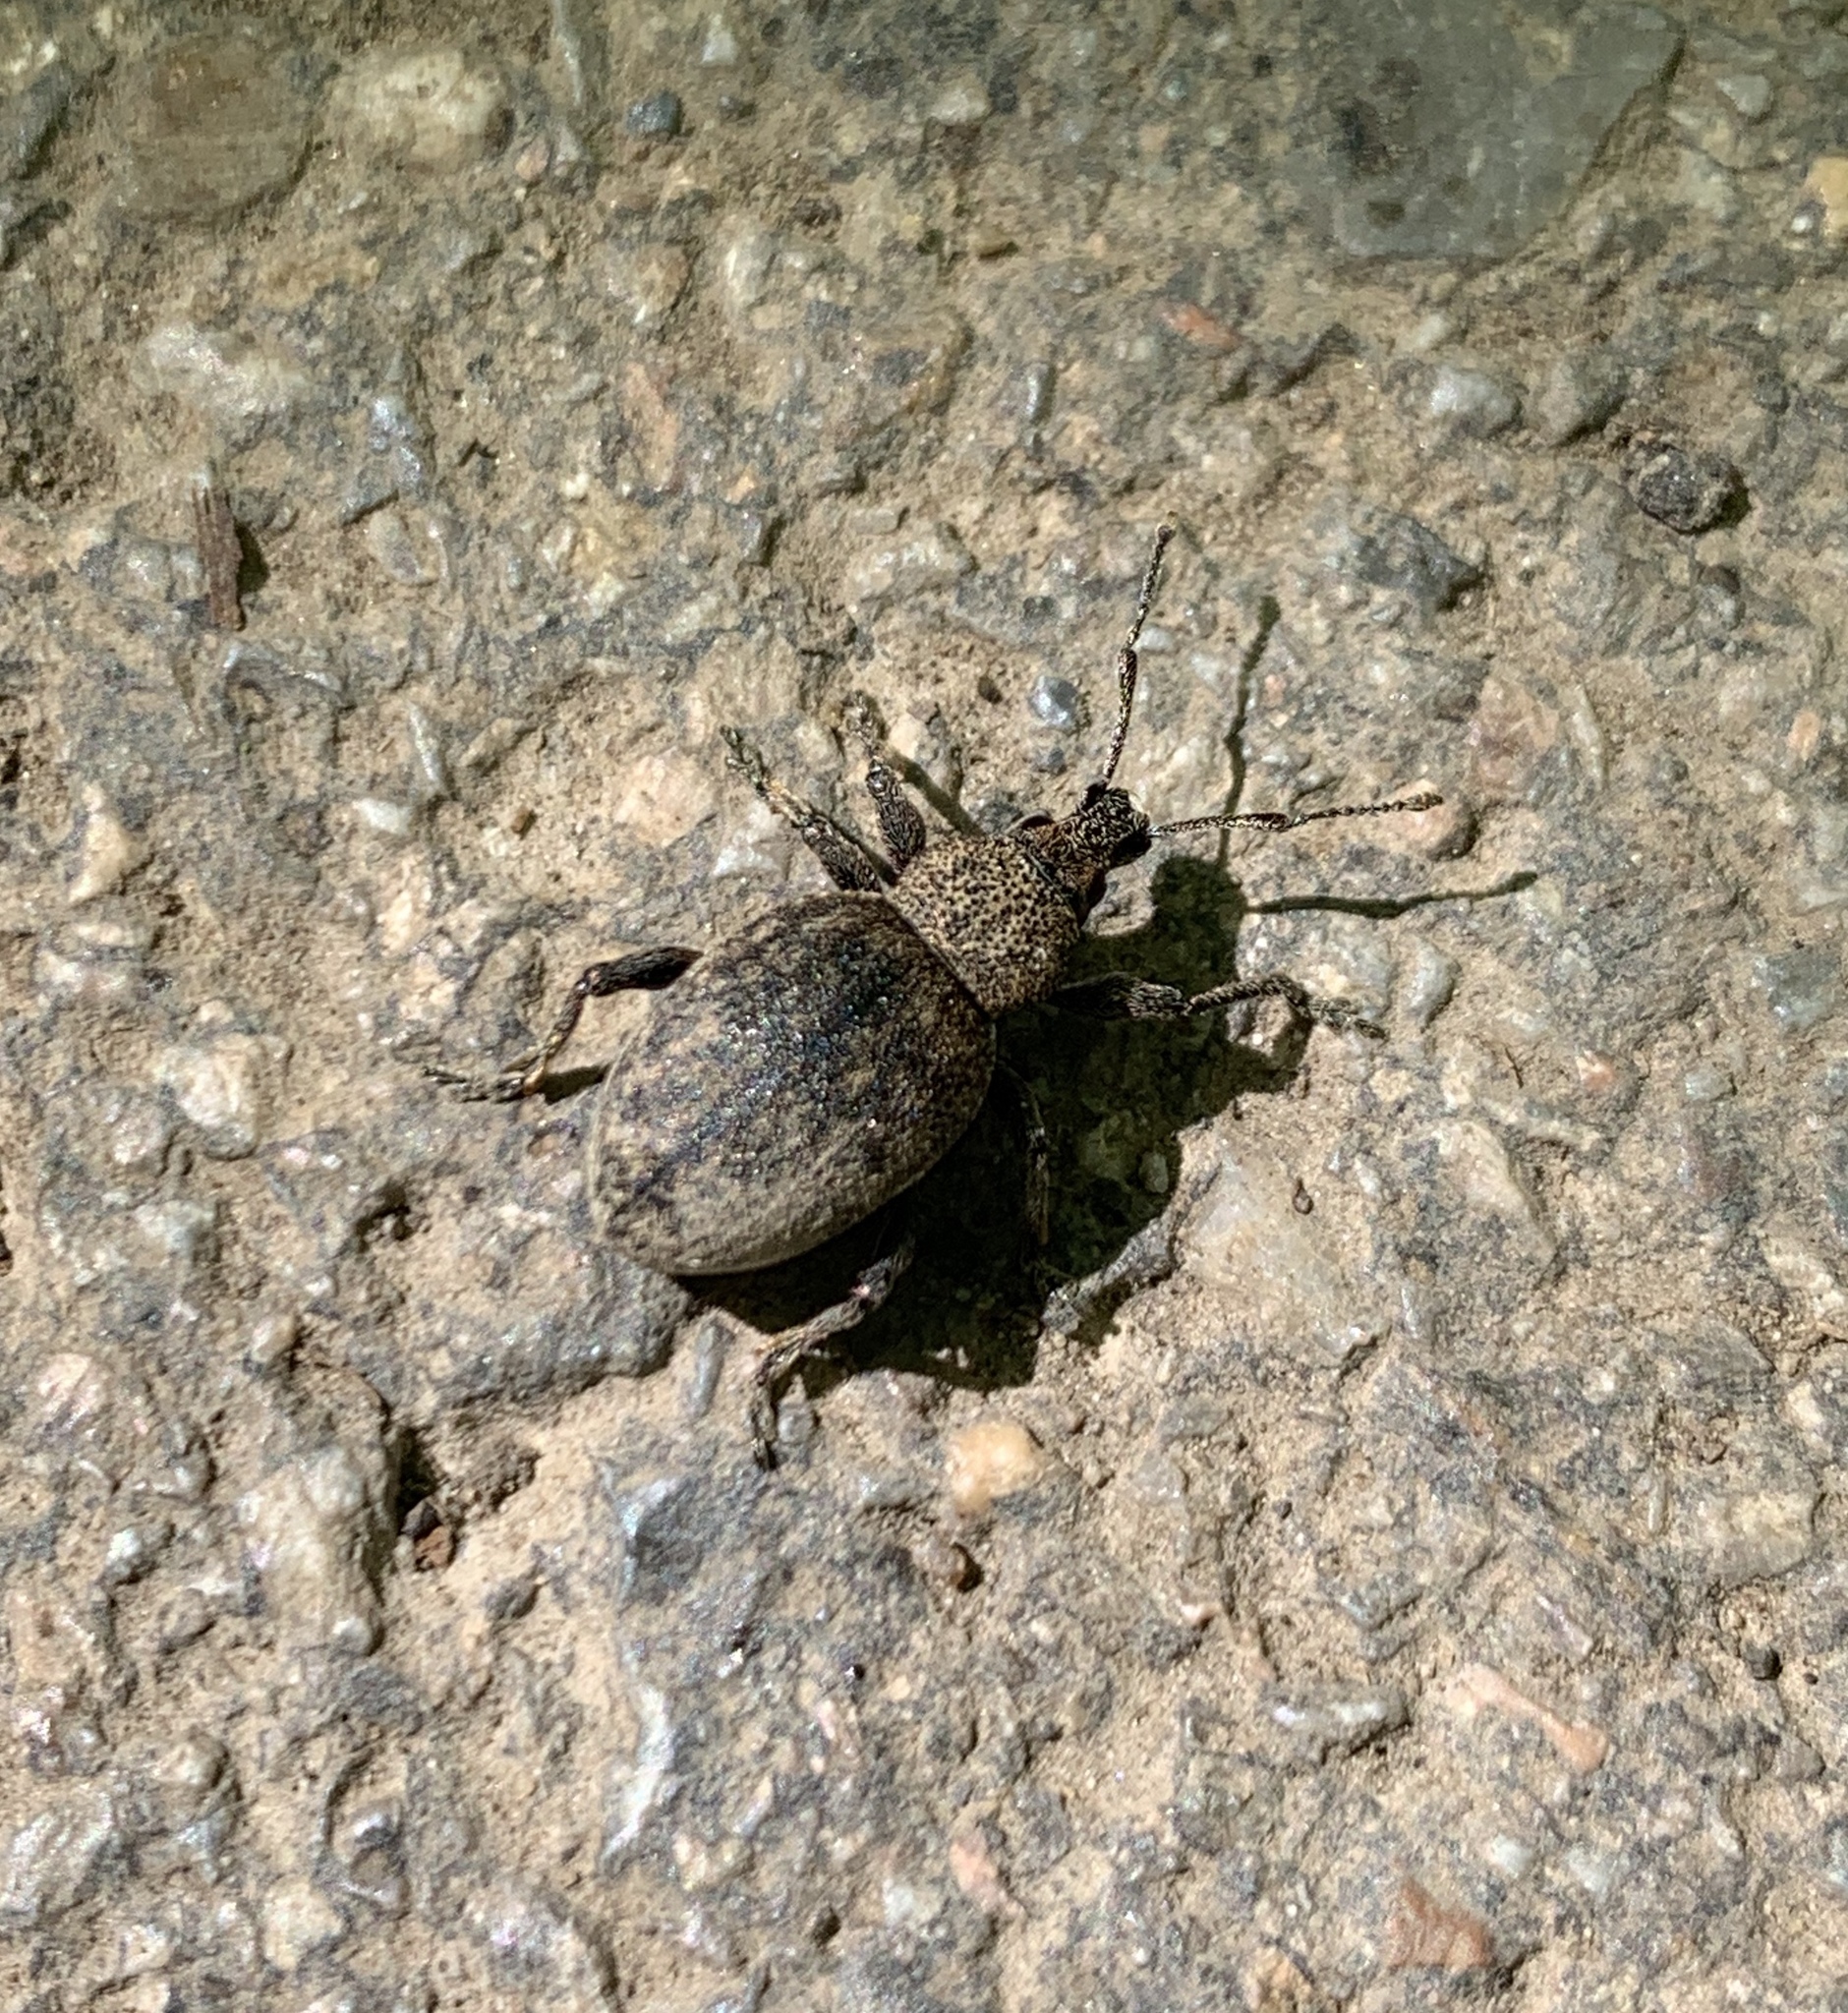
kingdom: Animalia
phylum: Arthropoda
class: Insecta
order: Coleoptera
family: Curculionidae
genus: Otiorhynchus
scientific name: Otiorhynchus ligustici
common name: Weevil
